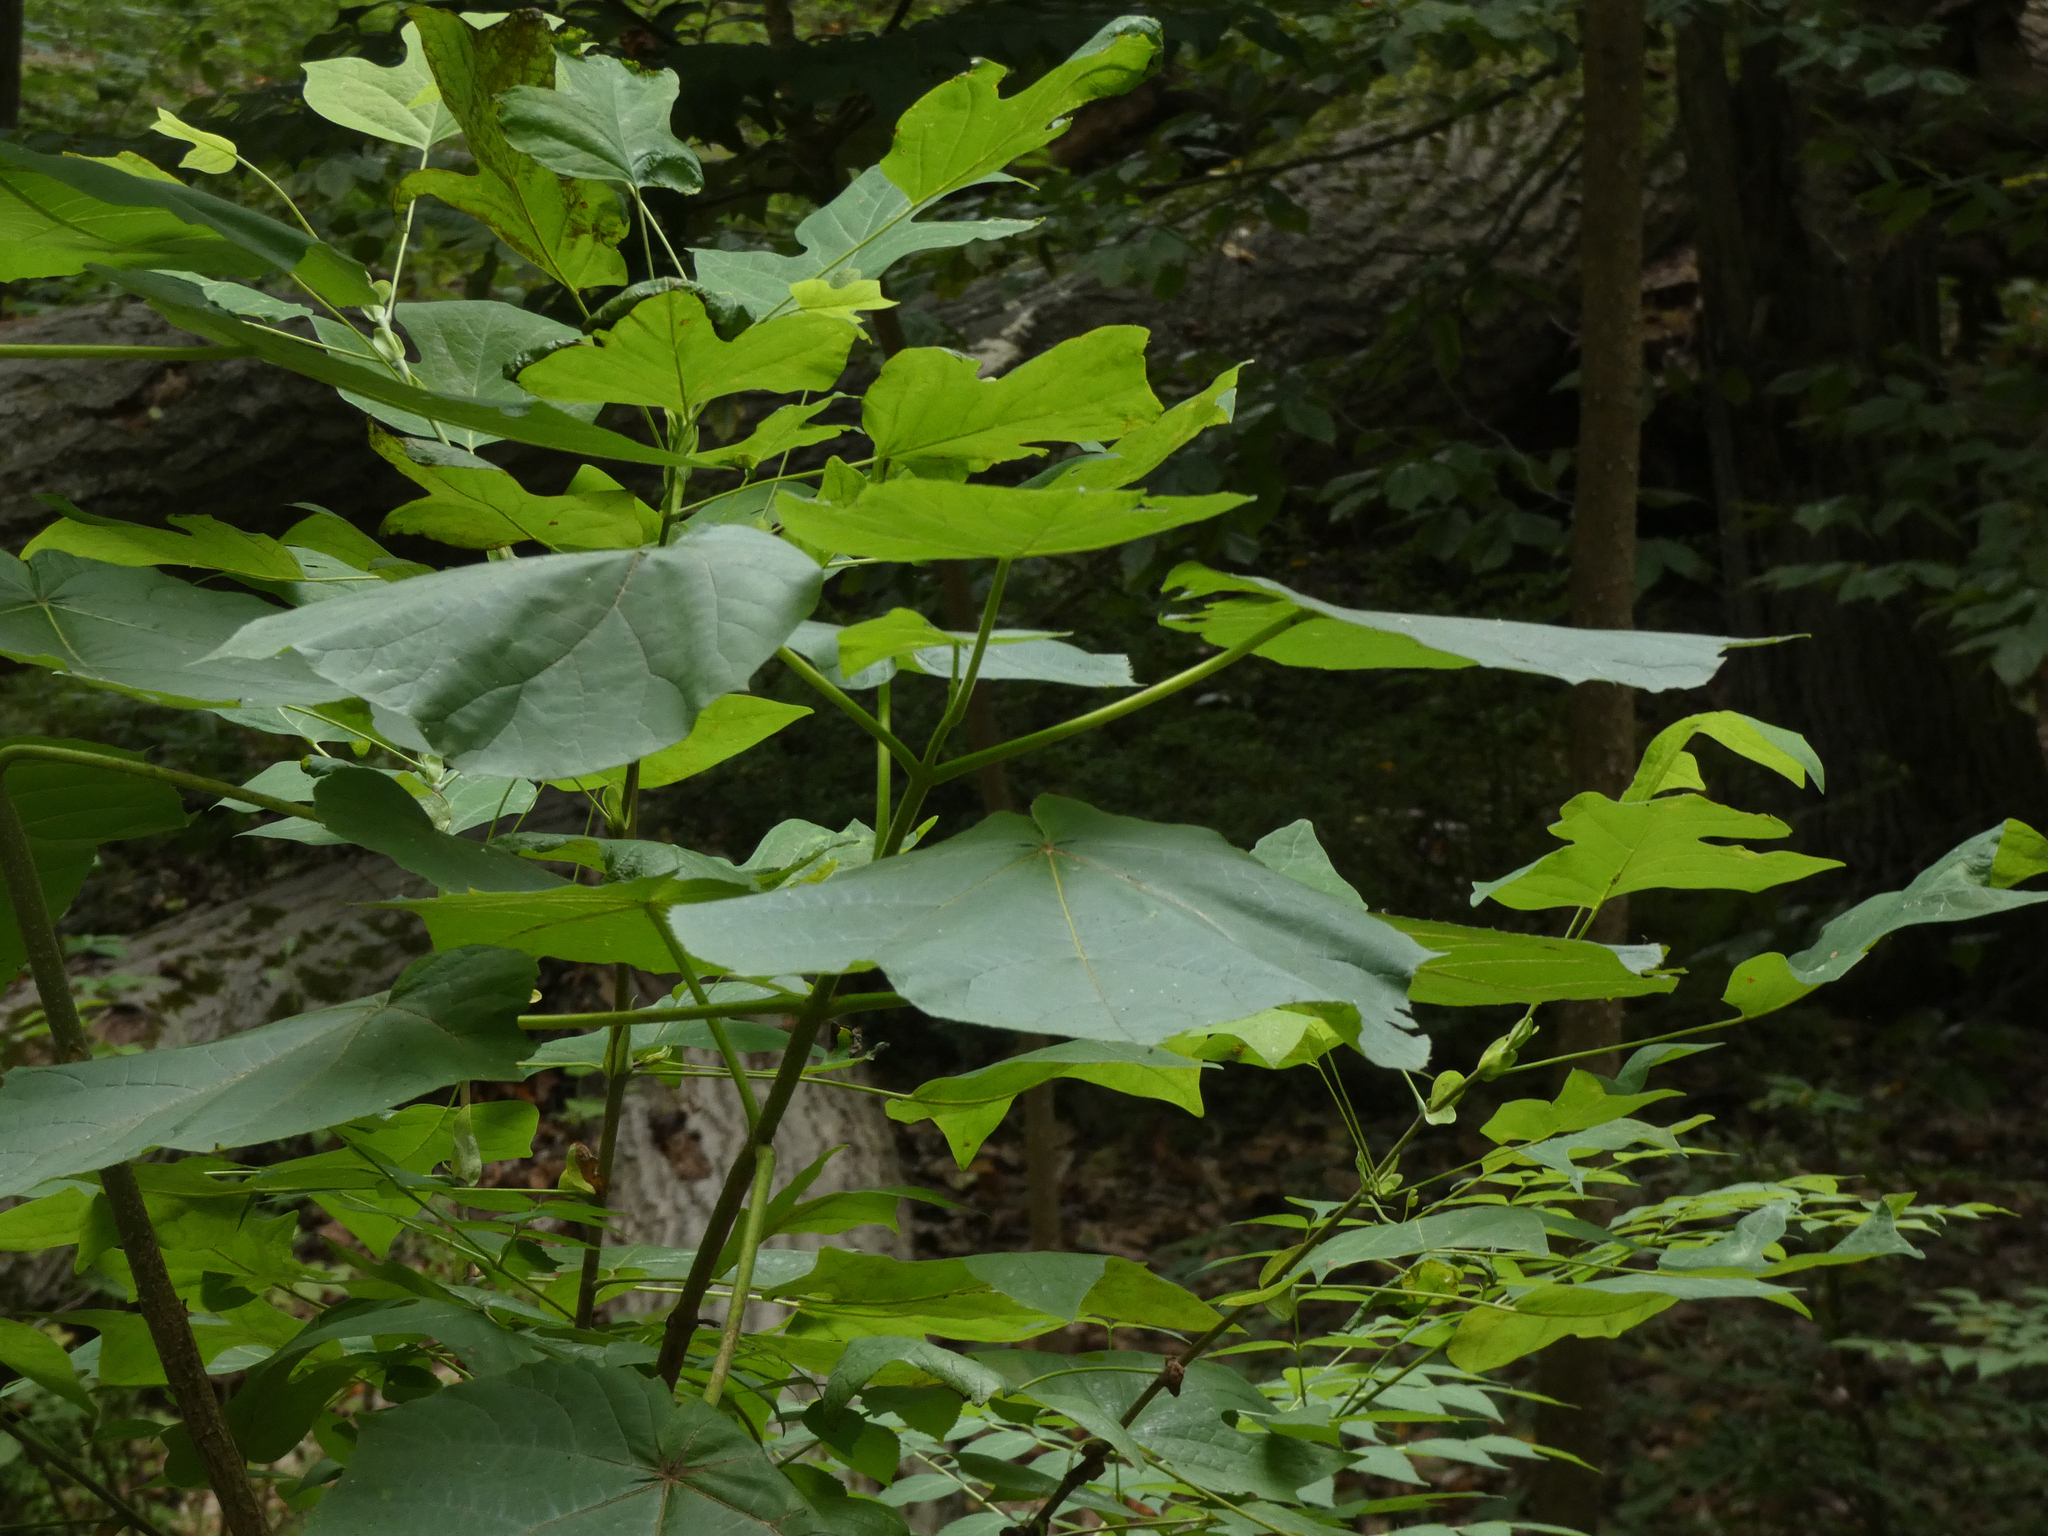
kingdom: Plantae
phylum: Tracheophyta
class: Magnoliopsida
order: Lamiales
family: Paulowniaceae
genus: Paulownia
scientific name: Paulownia tomentosa
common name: Foxglove-tree
